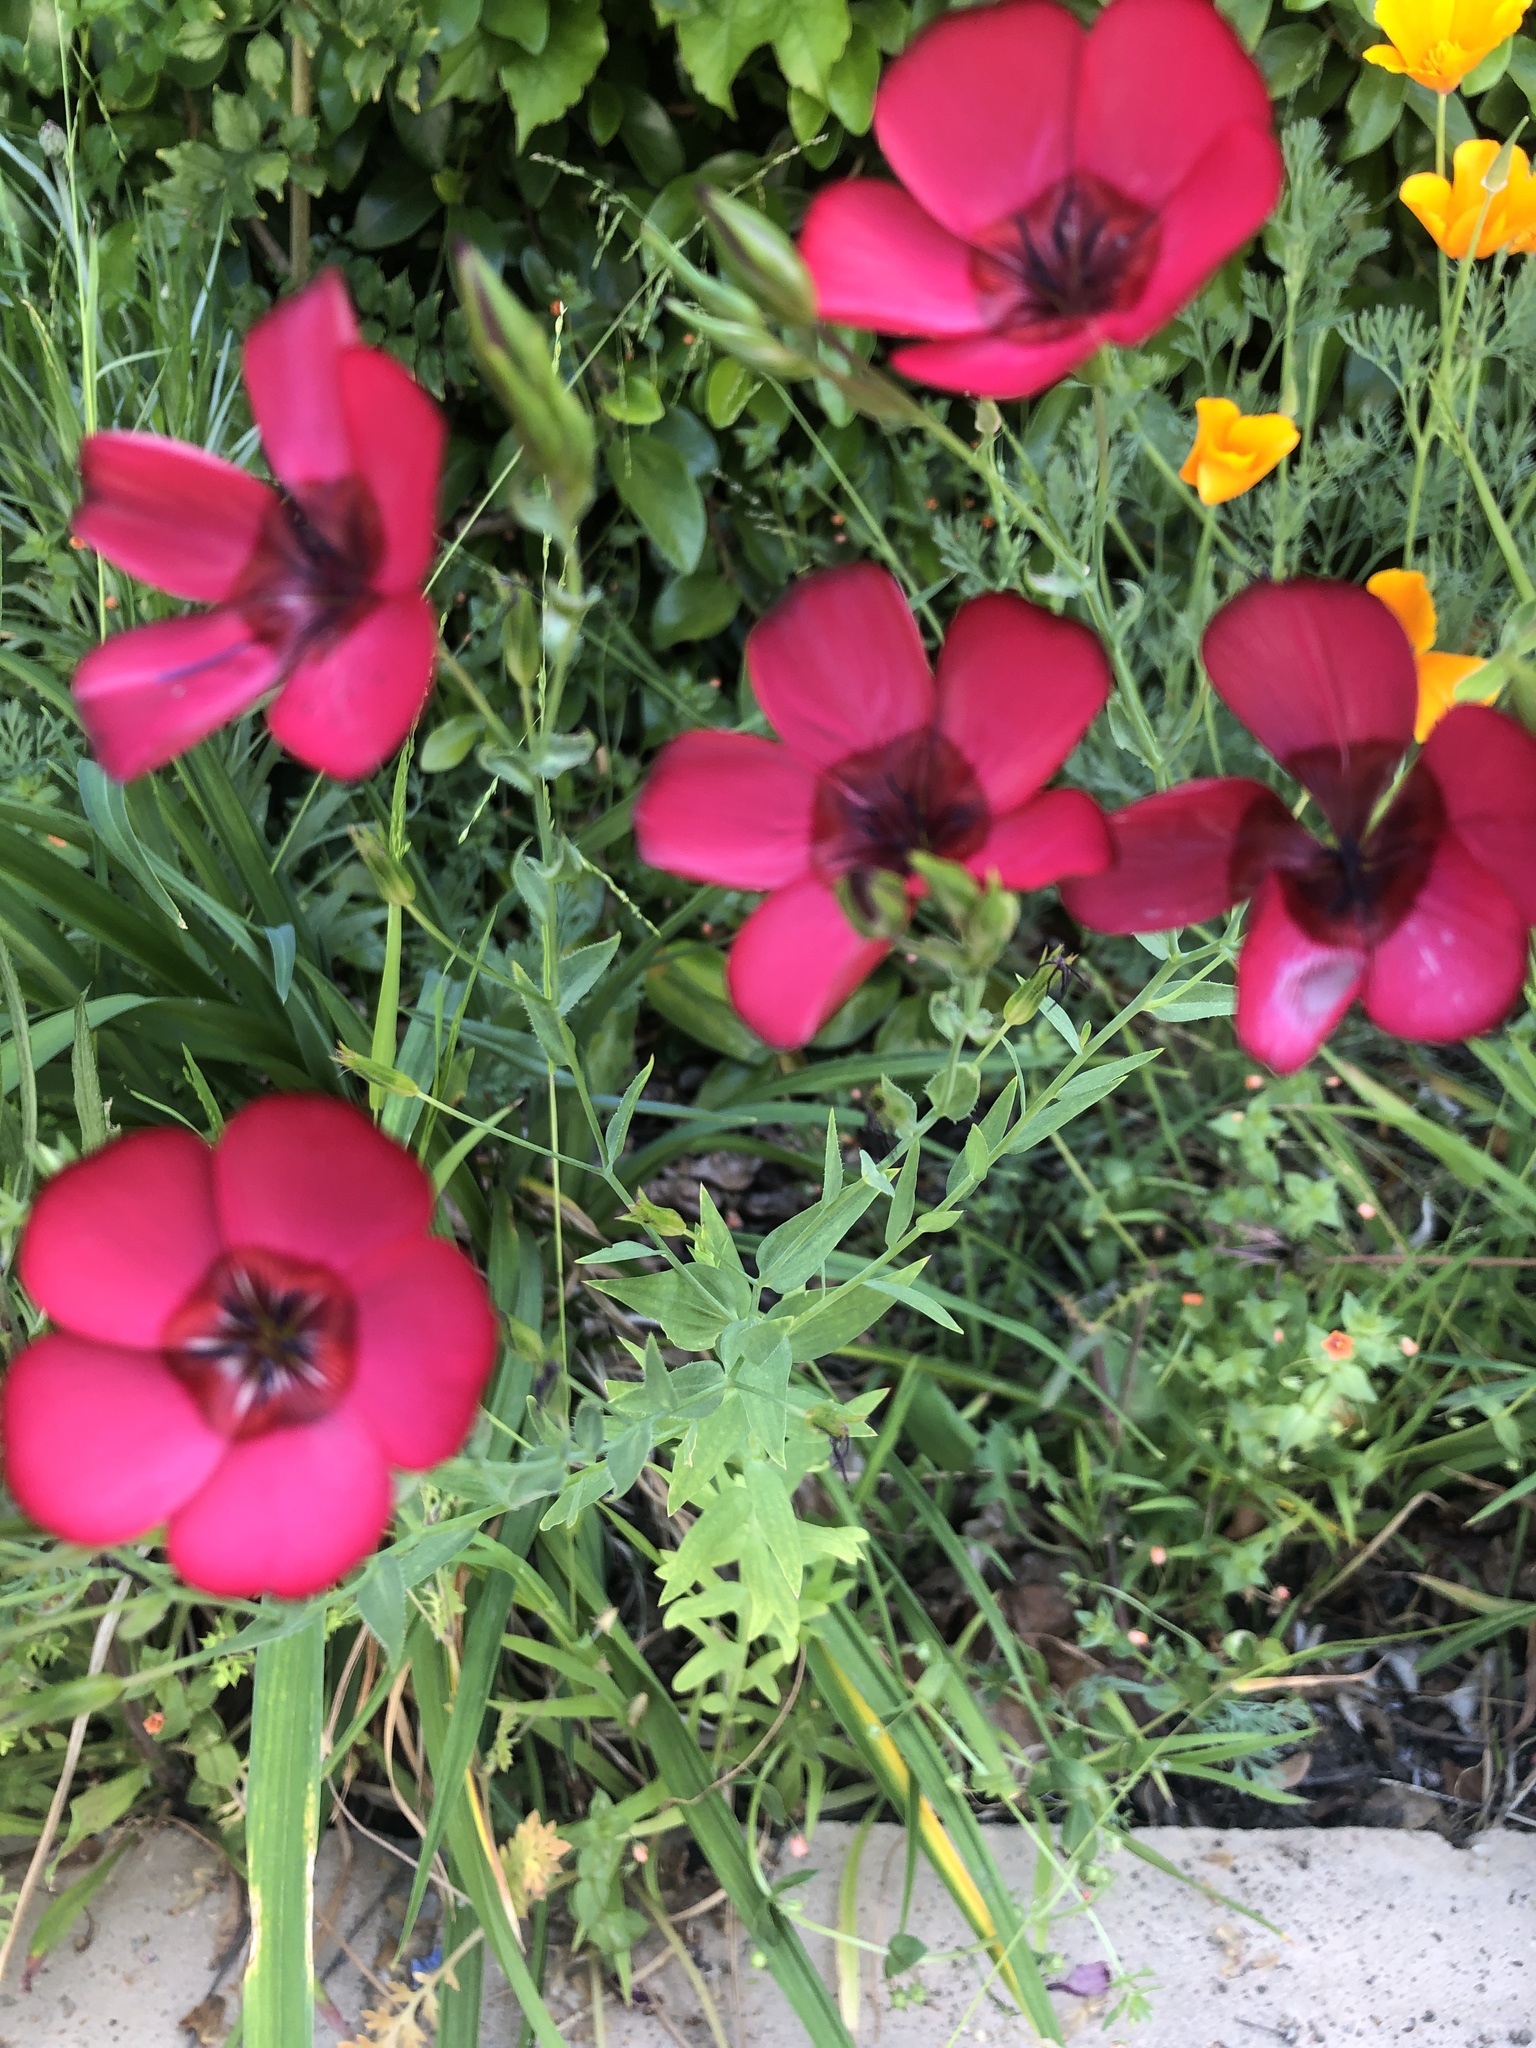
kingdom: Plantae
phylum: Tracheophyta
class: Magnoliopsida
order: Malpighiales
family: Linaceae
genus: Linum
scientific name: Linum grandiflorum
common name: Crimson flax
